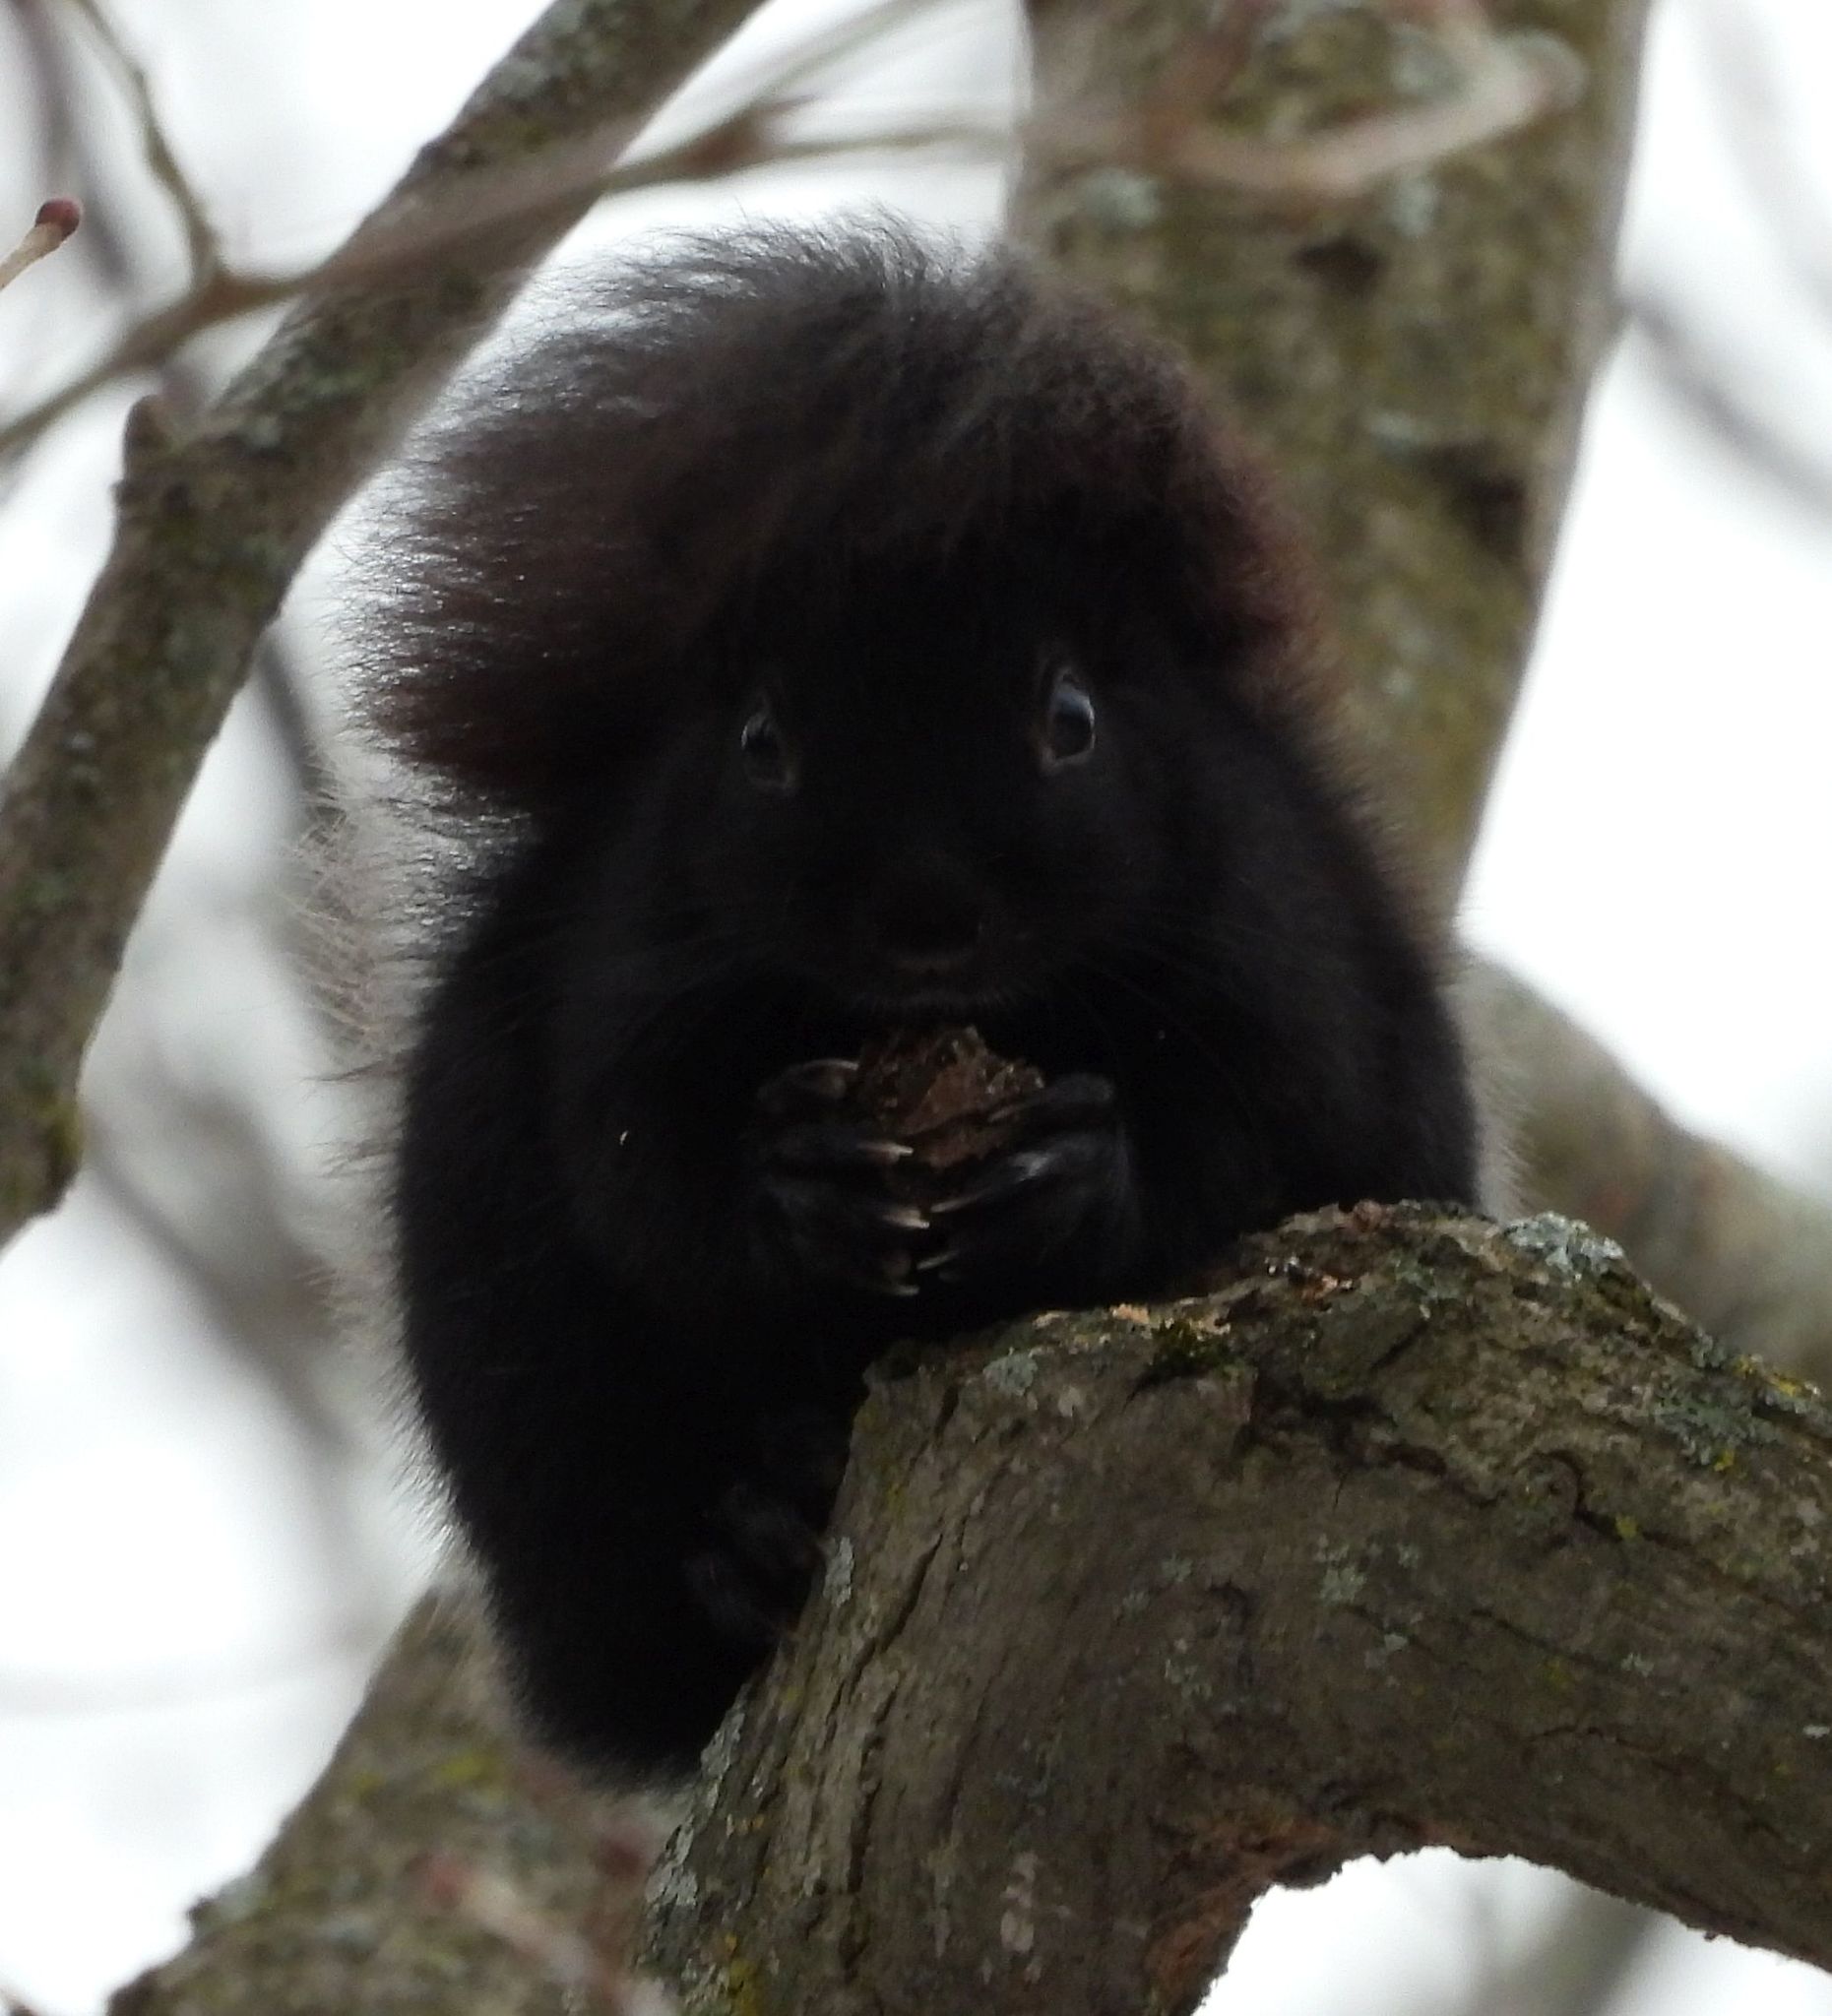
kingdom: Animalia
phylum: Chordata
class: Mammalia
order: Rodentia
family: Sciuridae
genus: Sciurus
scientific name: Sciurus carolinensis
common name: Eastern gray squirrel
